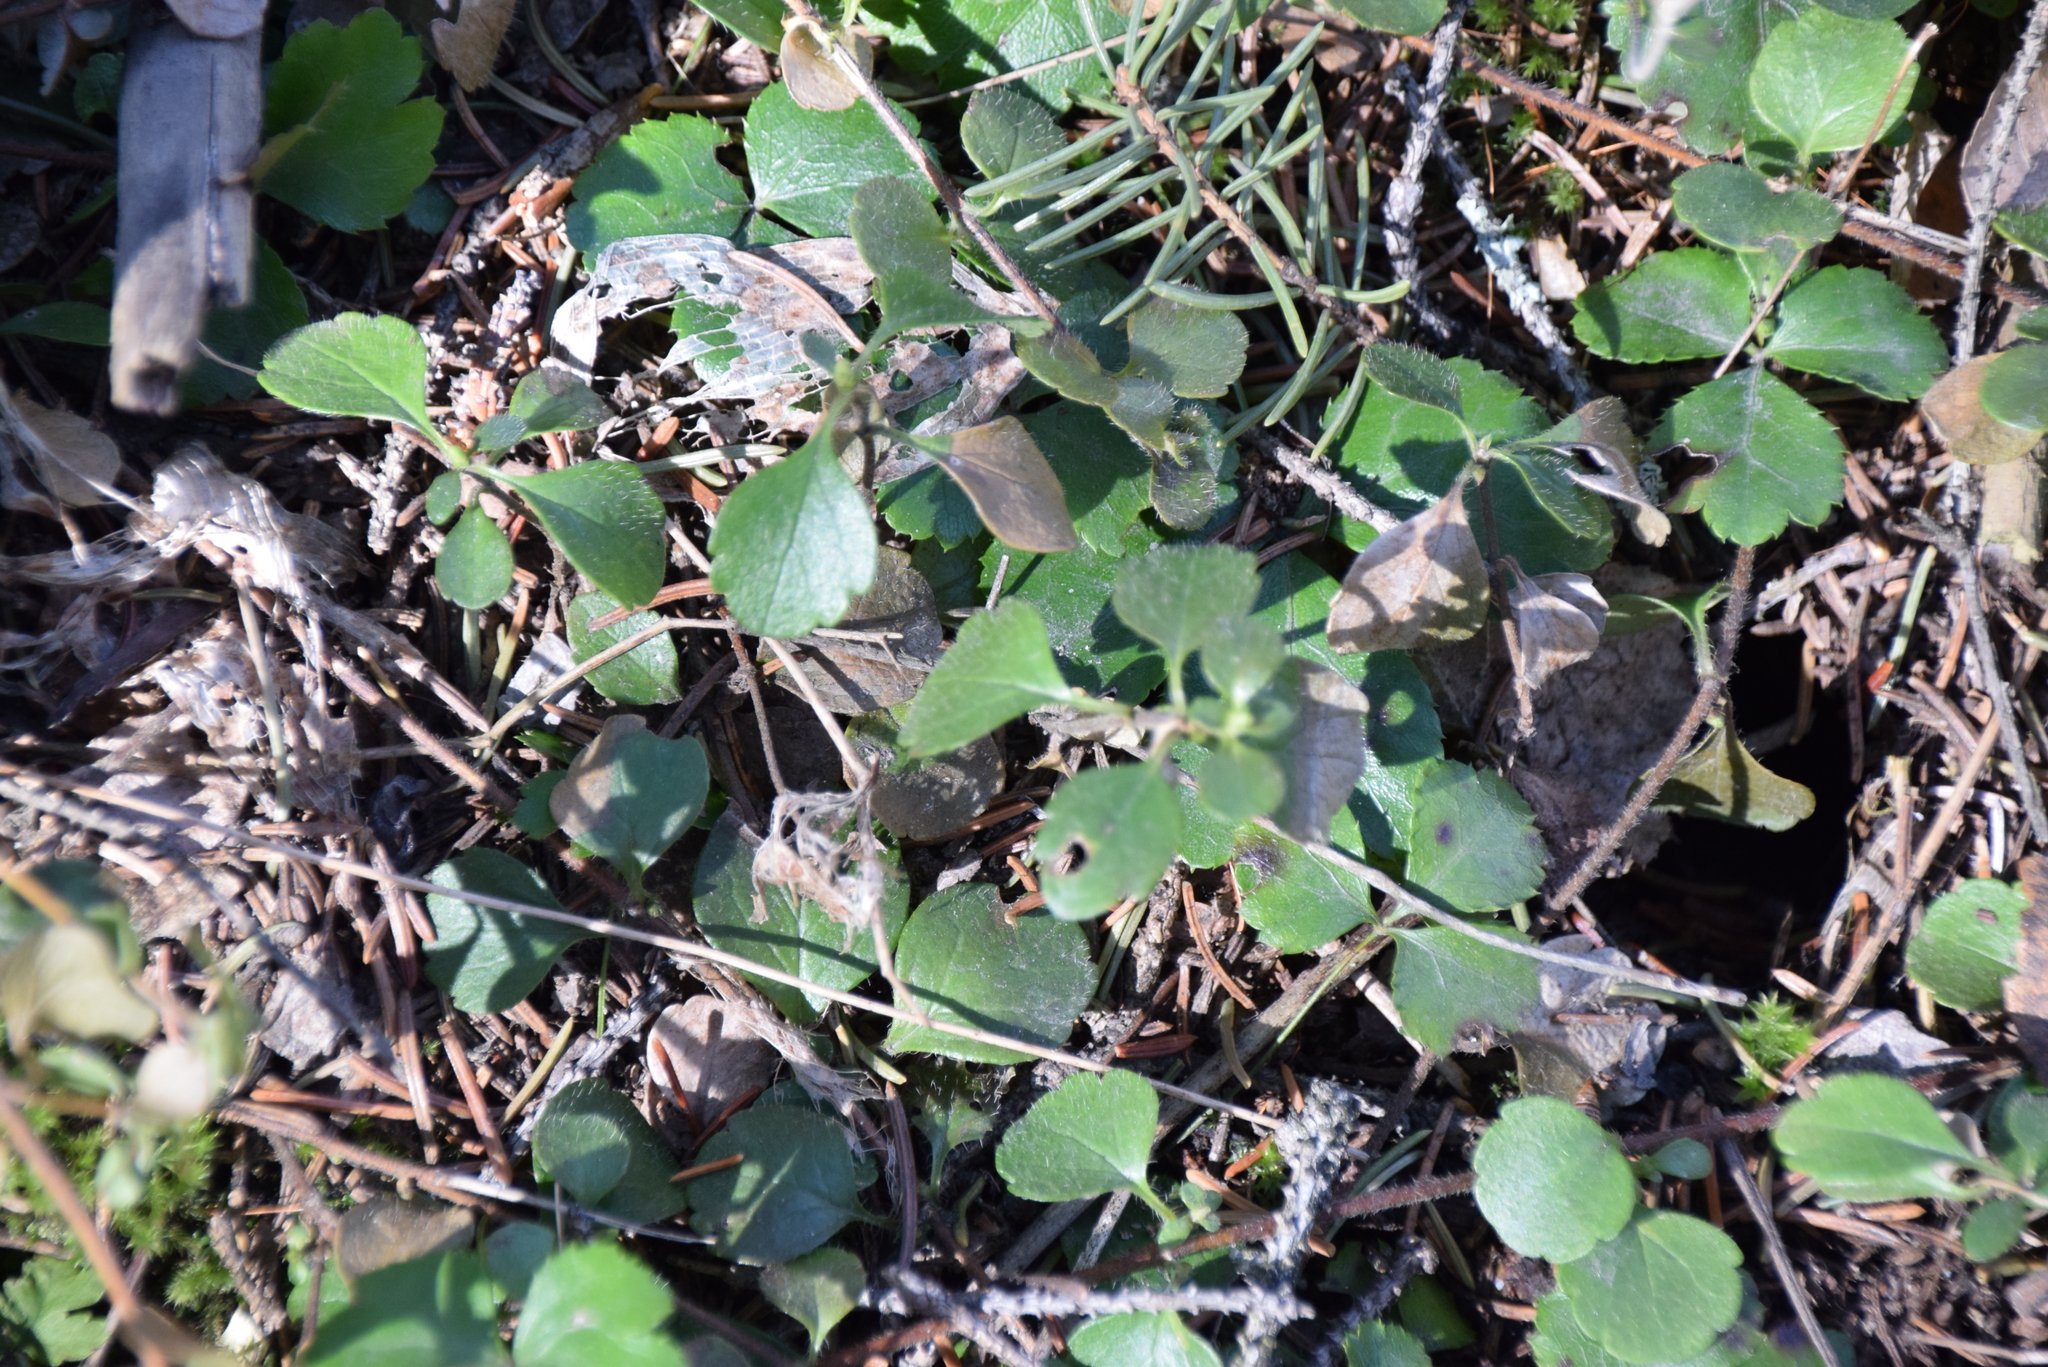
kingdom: Plantae
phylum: Tracheophyta
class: Magnoliopsida
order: Dipsacales
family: Caprifoliaceae
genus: Linnaea
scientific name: Linnaea borealis
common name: Twinflower
